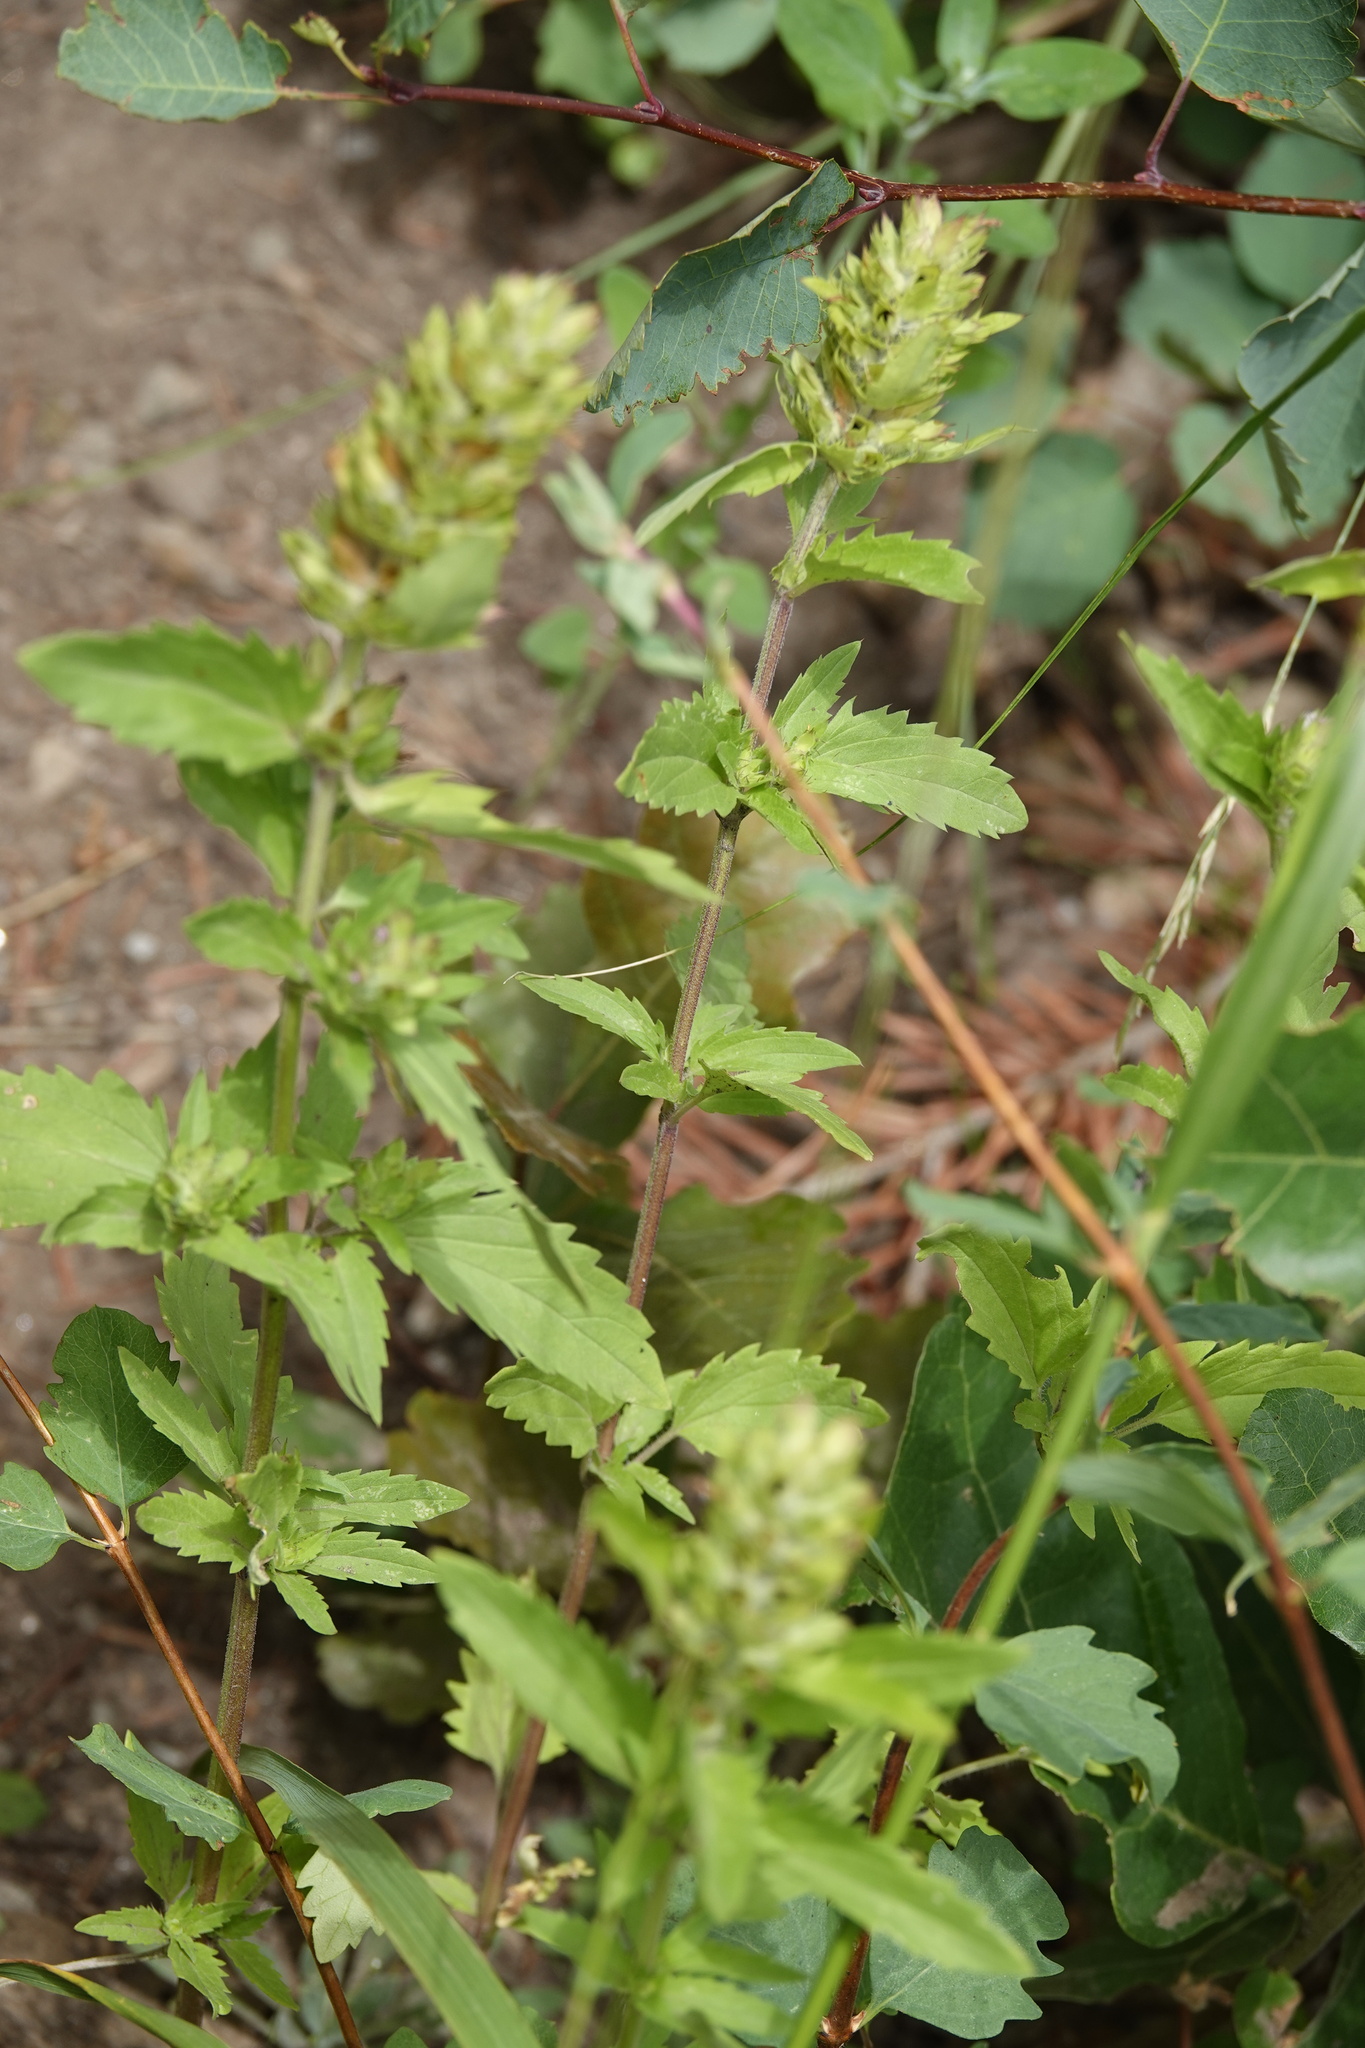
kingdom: Plantae
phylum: Tracheophyta
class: Magnoliopsida
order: Lamiales
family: Lamiaceae
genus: Dracocephalum
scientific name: Dracocephalum parviflorum
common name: American dragonhead
